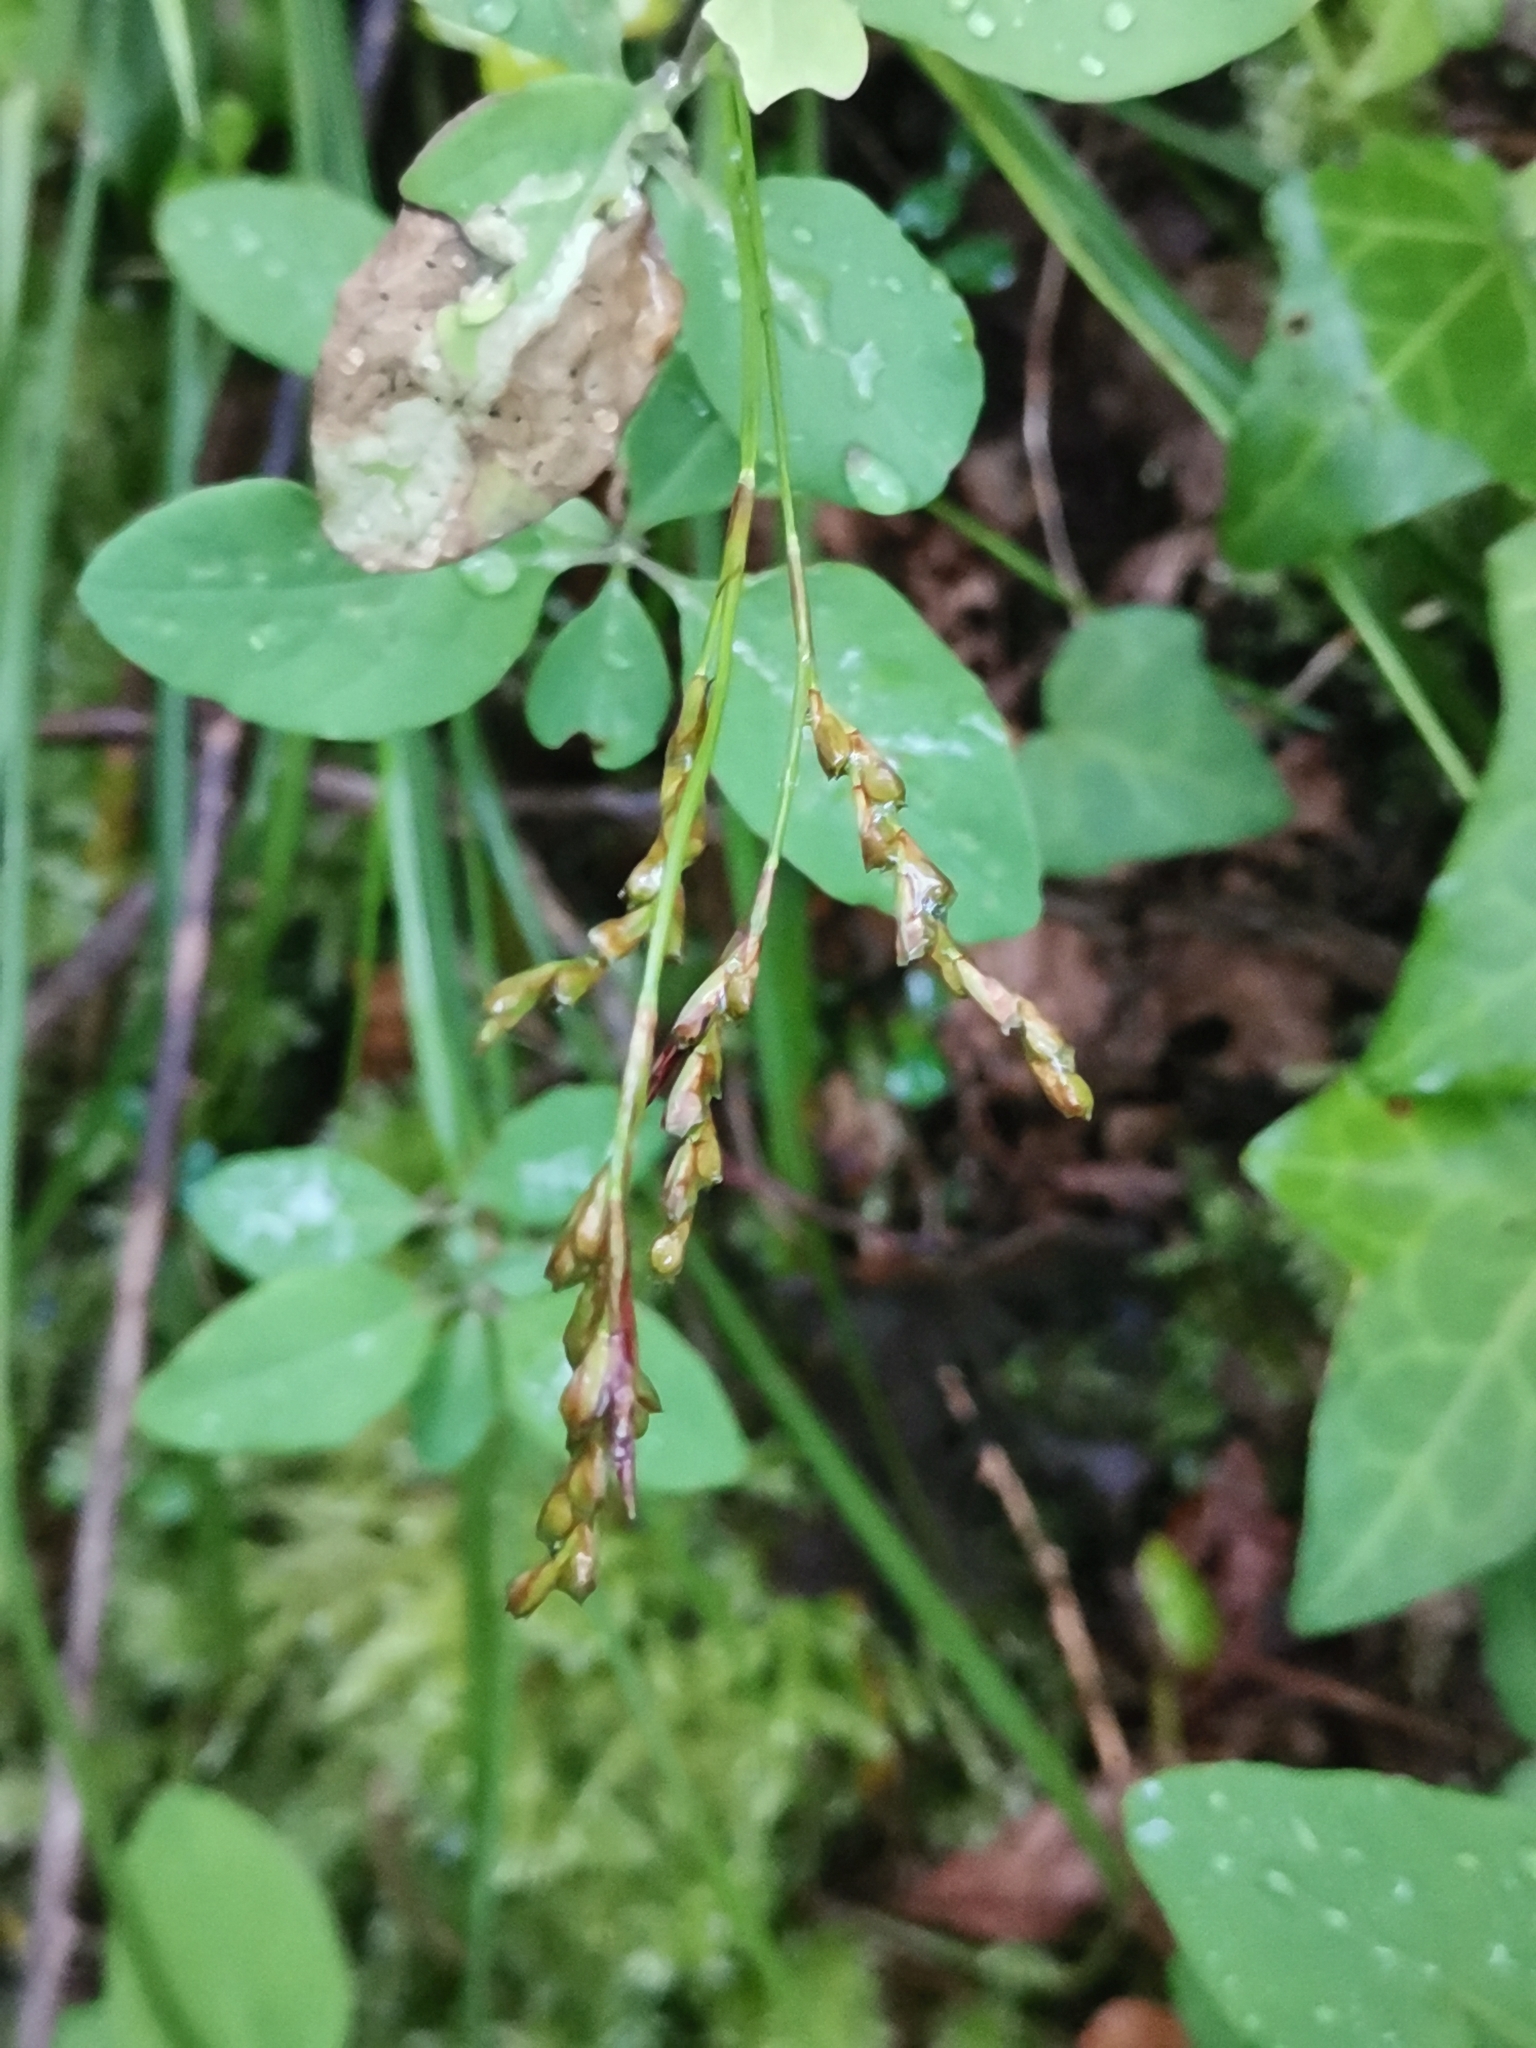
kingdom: Plantae
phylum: Tracheophyta
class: Liliopsida
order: Poales
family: Cyperaceae
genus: Carex
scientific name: Carex digitata
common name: Fingered sedge
